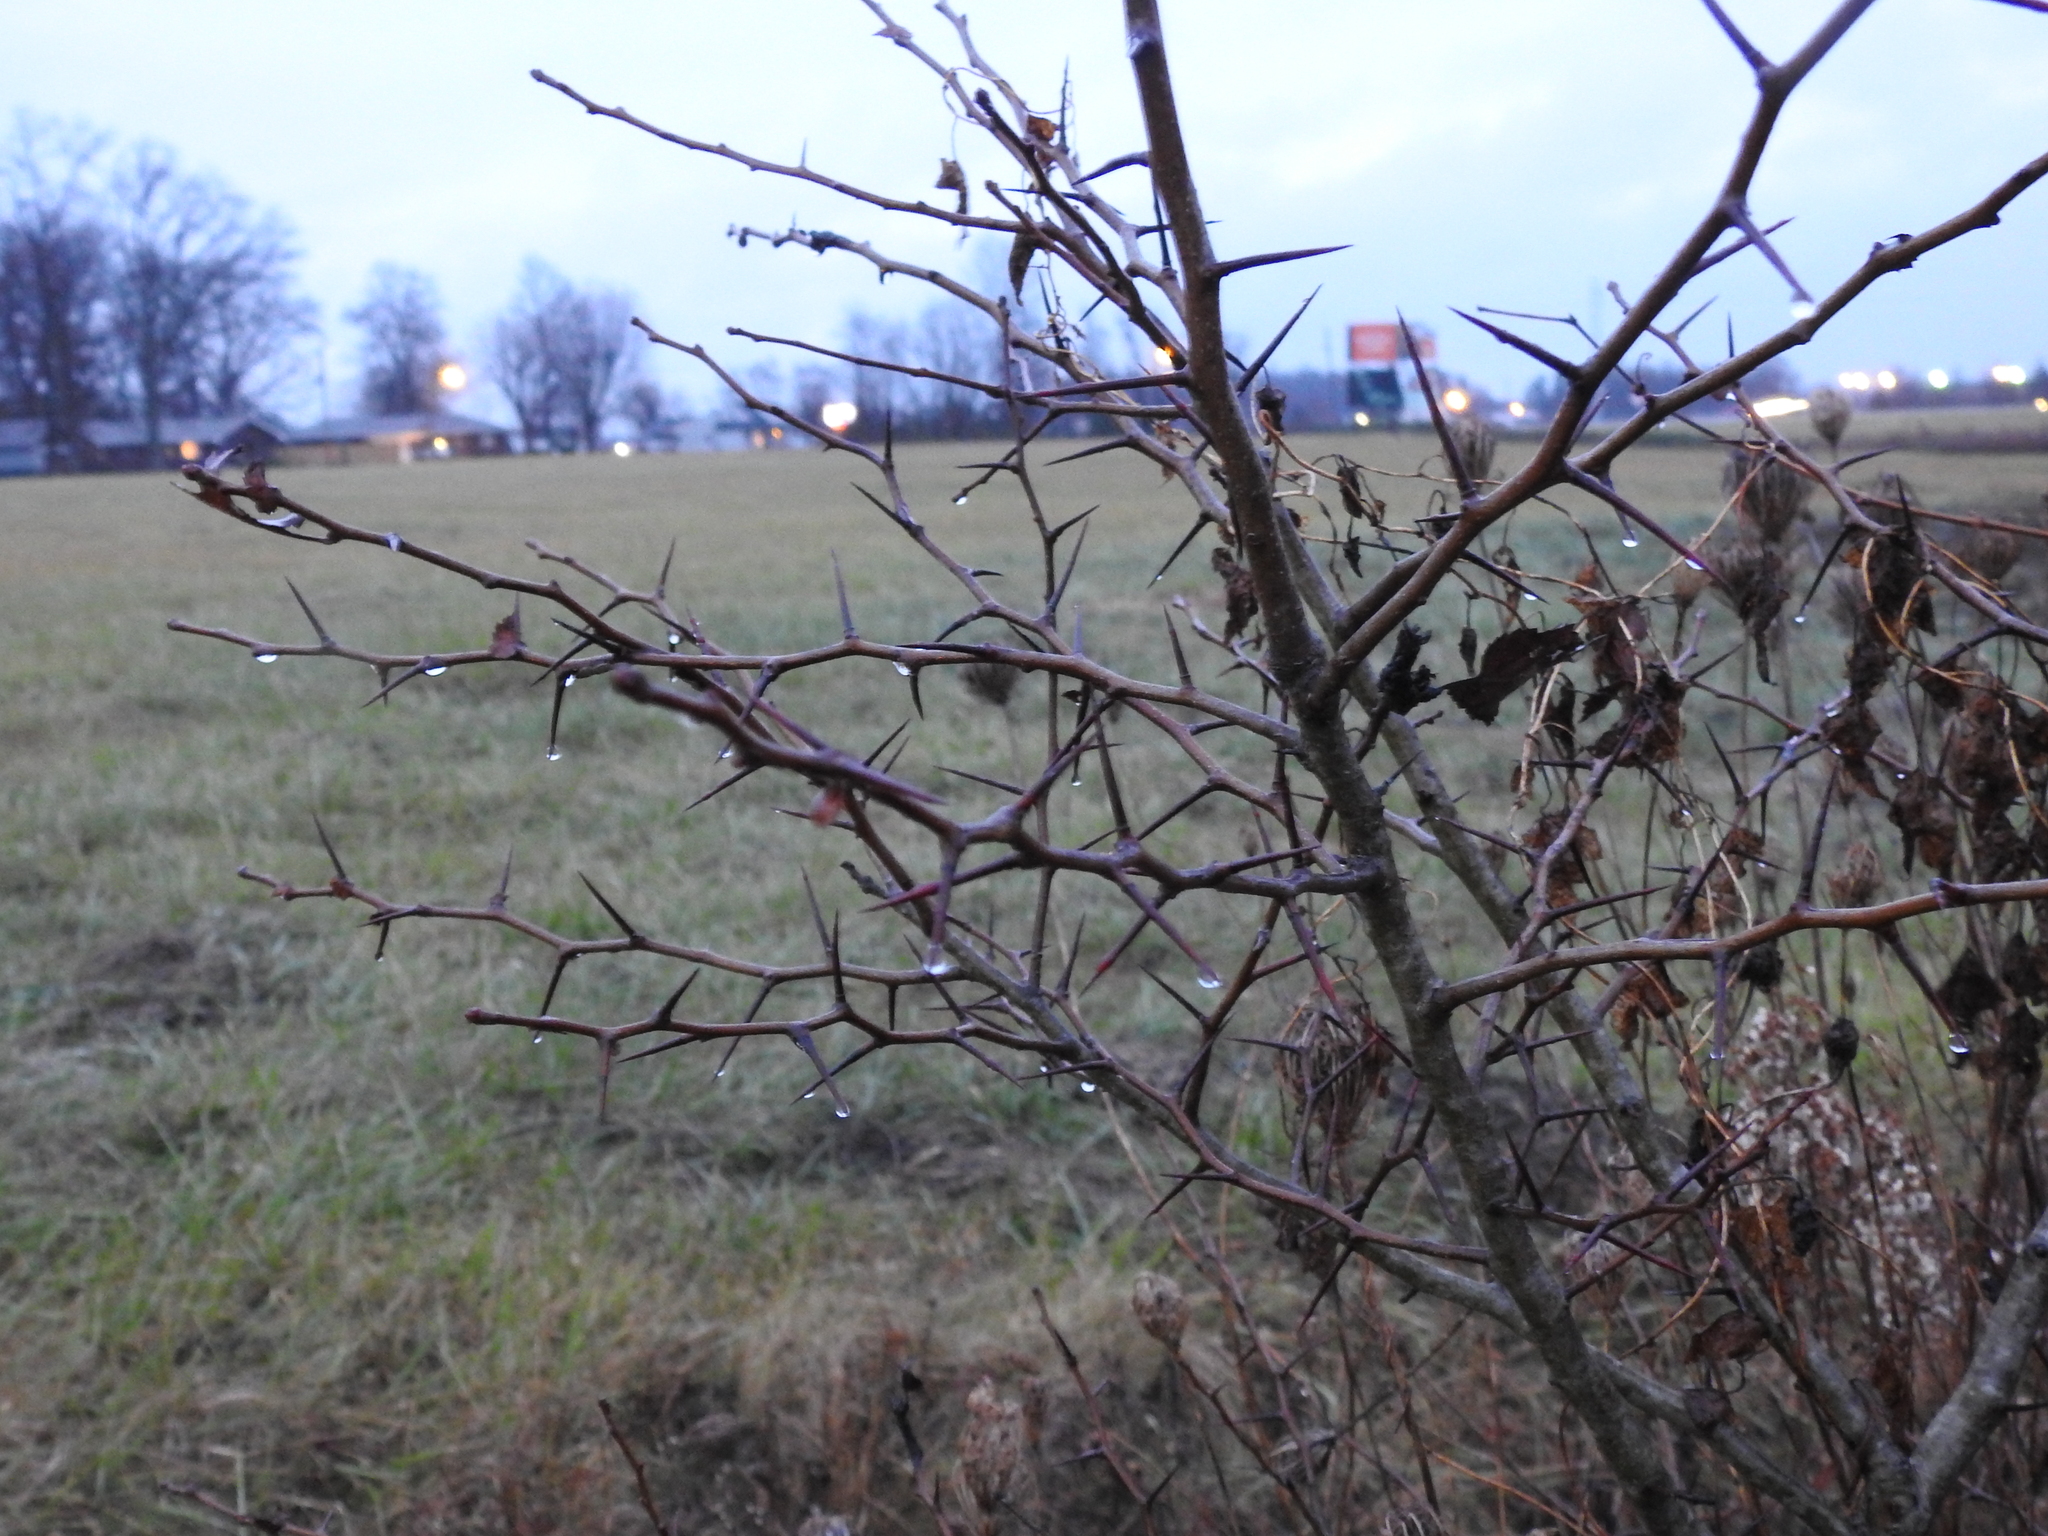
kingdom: Plantae
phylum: Tracheophyta
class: Magnoliopsida
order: Fabales
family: Fabaceae
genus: Gleditsia
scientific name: Gleditsia triacanthos
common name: Common honeylocust
